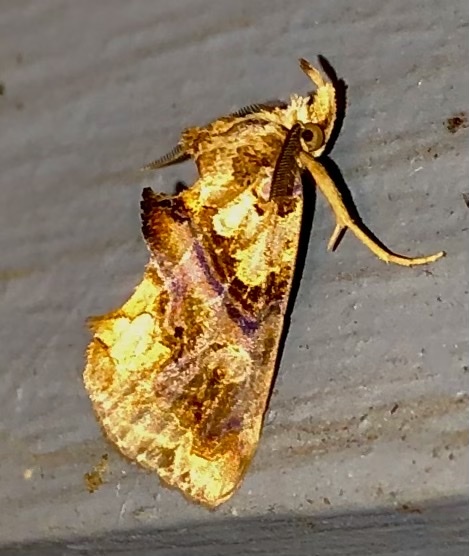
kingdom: Animalia
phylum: Arthropoda
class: Insecta
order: Lepidoptera
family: Erebidae
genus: Plusiodonta
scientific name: Plusiodonta compressipalpis
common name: Moonseed moth
